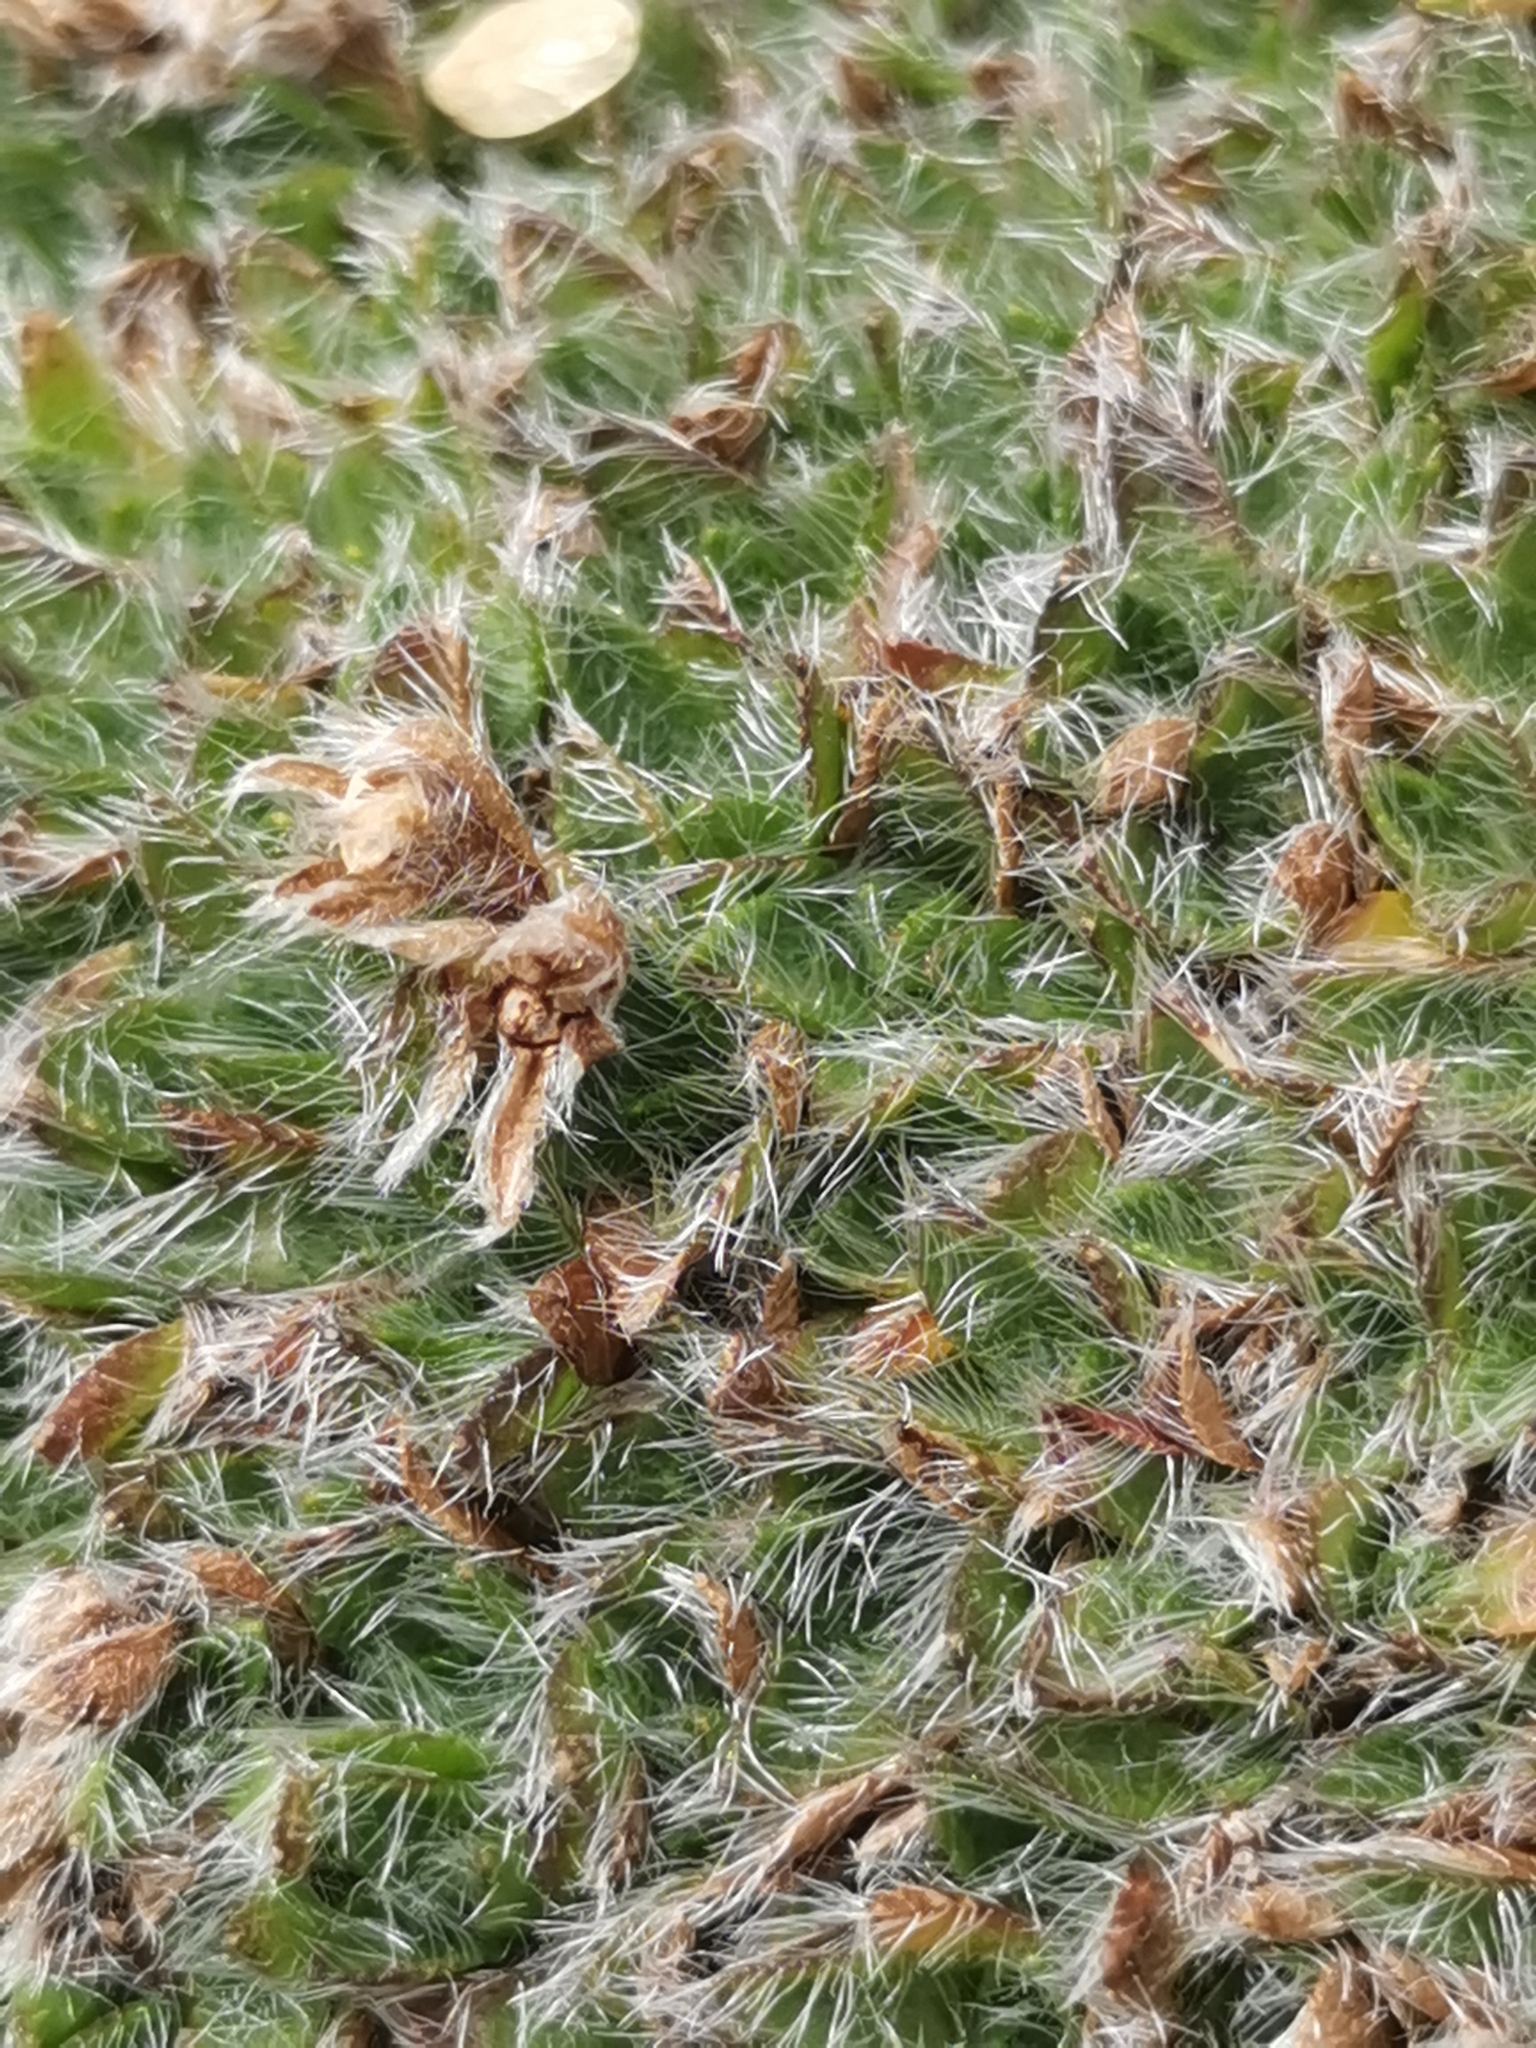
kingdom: Plantae
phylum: Tracheophyta
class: Magnoliopsida
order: Boraginales
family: Boraginaceae
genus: Eritrichium
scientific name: Eritrichium nanum
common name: King-of-the-alps
